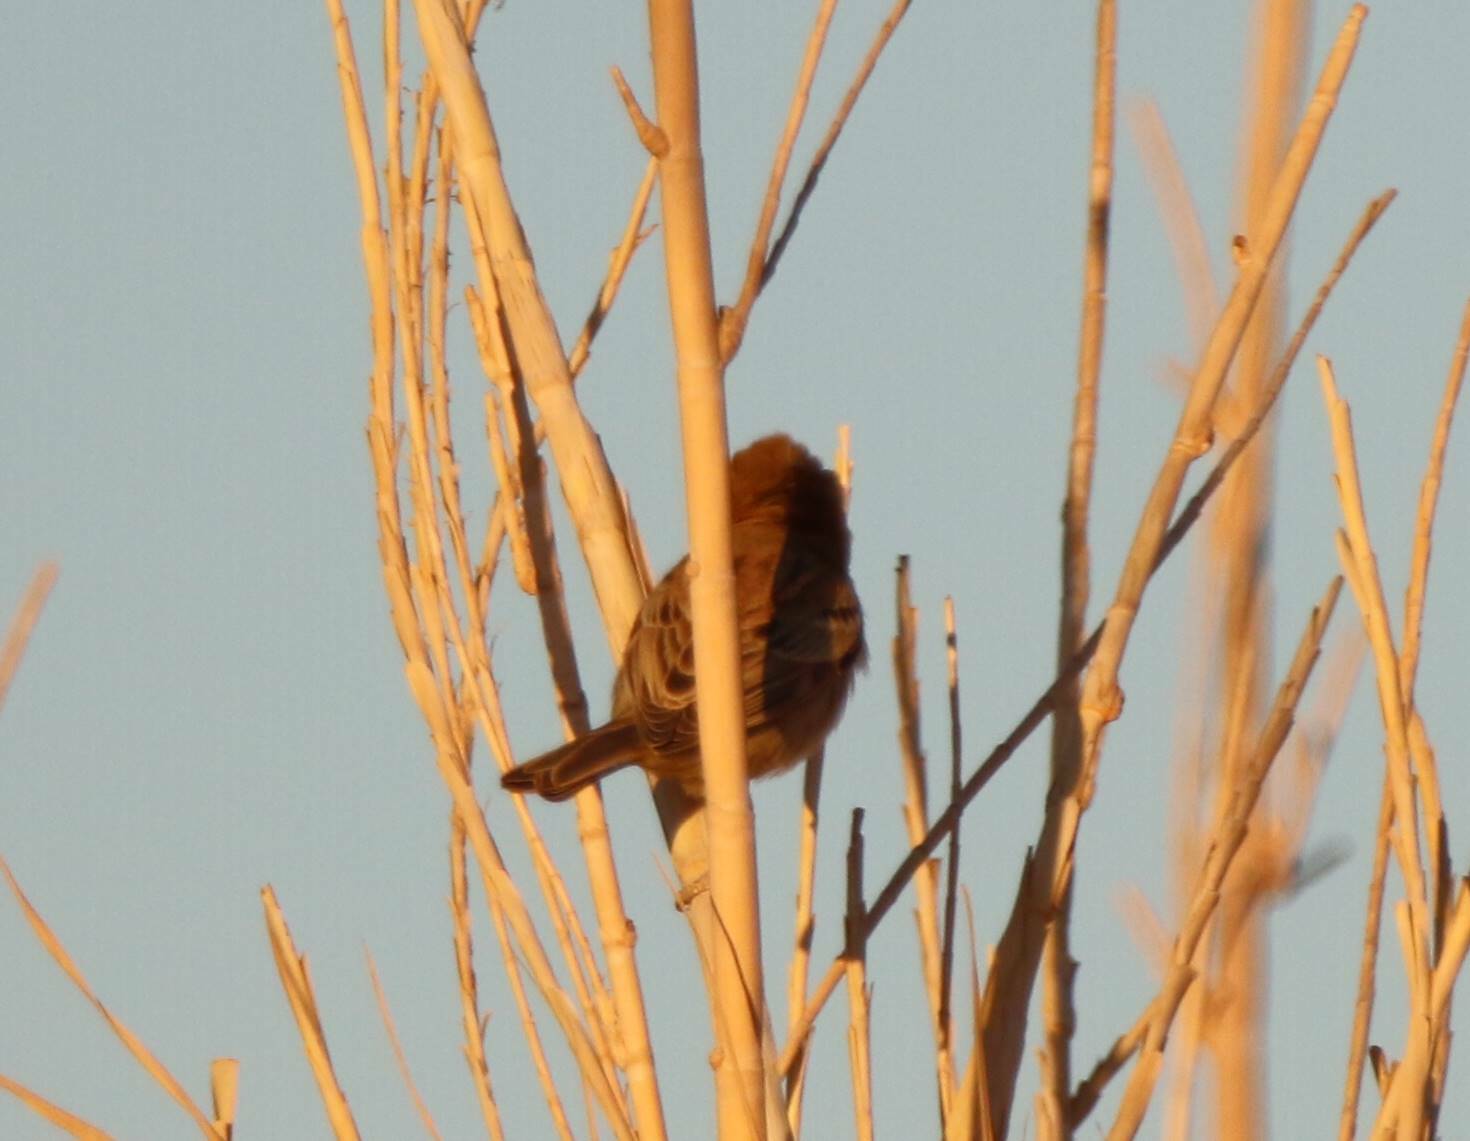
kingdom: Animalia
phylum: Chordata
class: Aves
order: Passeriformes
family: Passeridae
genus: Passer
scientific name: Passer luteus
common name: Sudan golden sparrow
